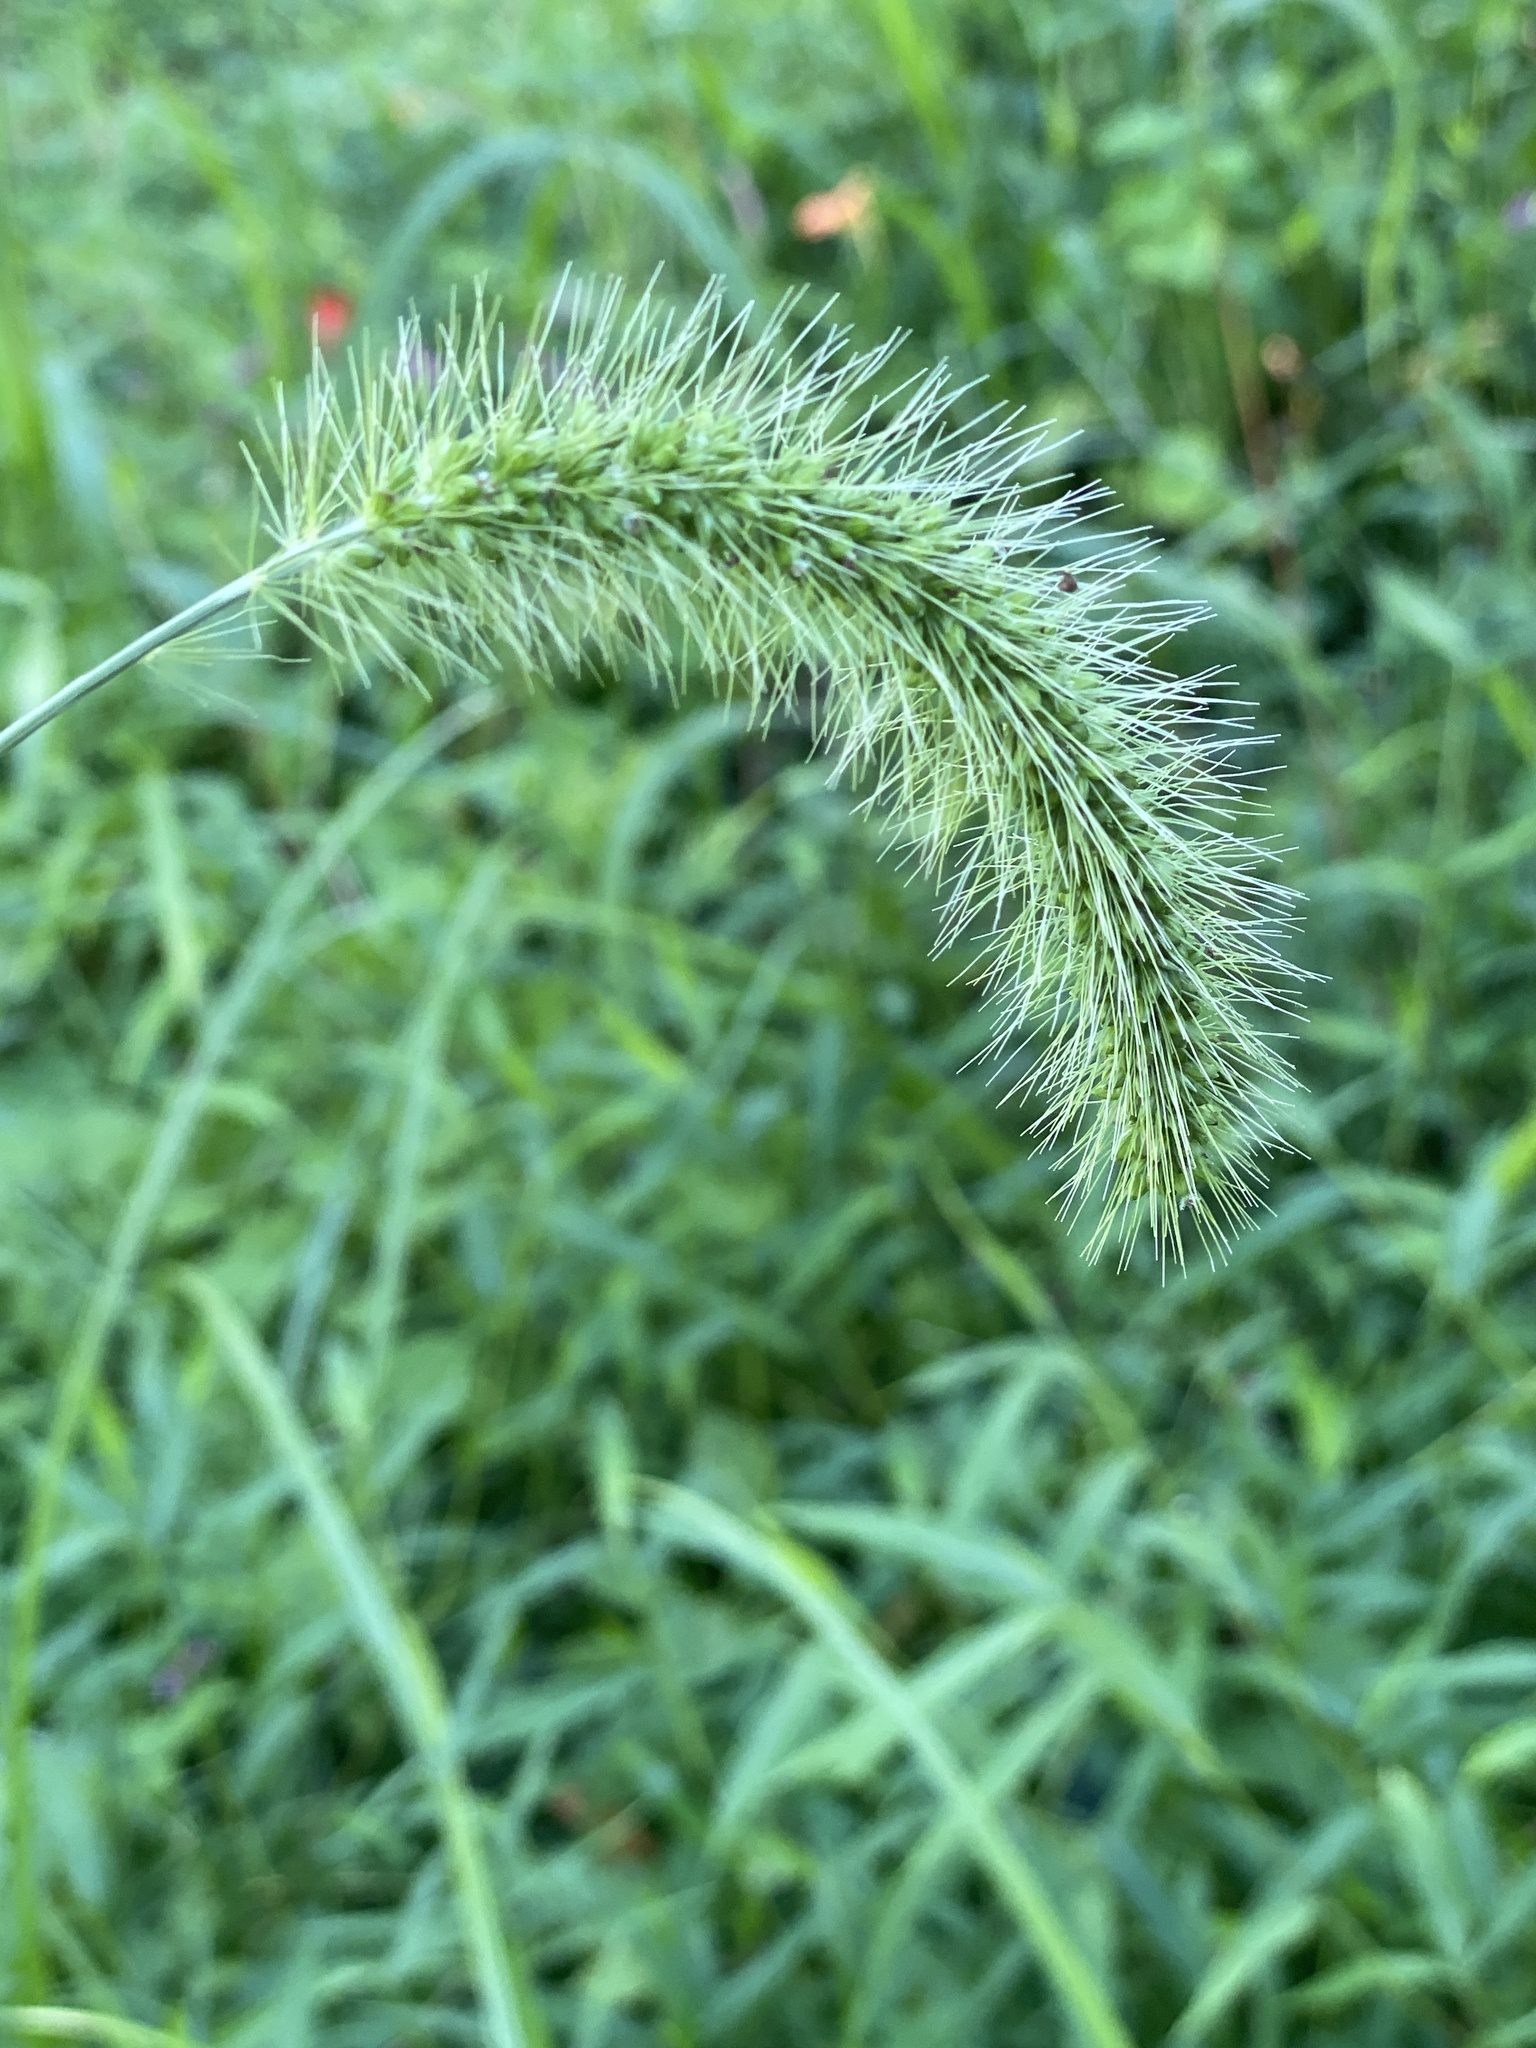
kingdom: Plantae
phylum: Tracheophyta
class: Liliopsida
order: Poales
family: Poaceae
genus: Setaria
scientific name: Setaria faberi
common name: Nodding bristle-grass
